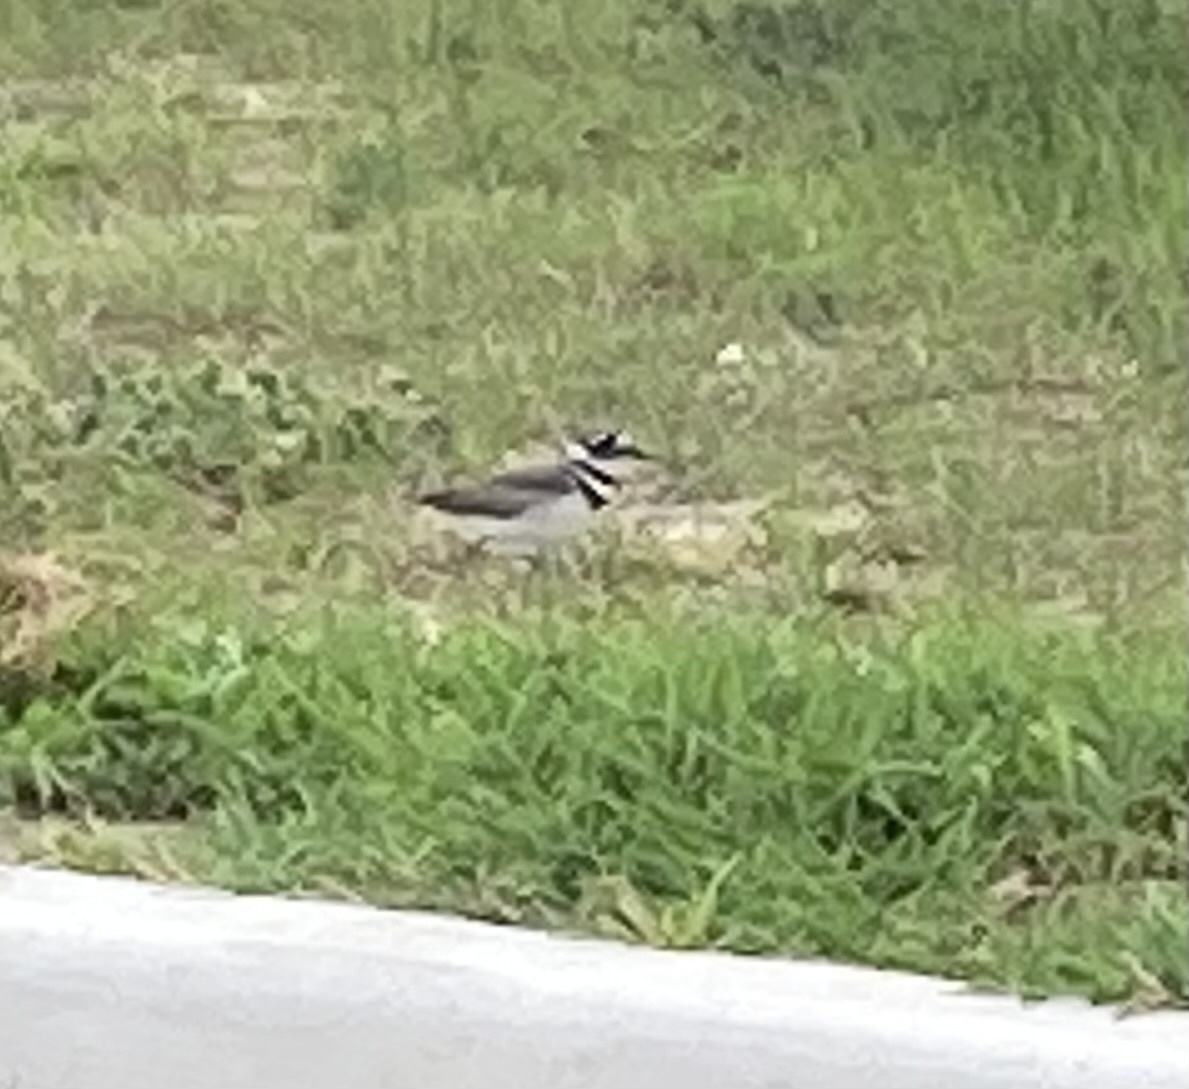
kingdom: Animalia
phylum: Chordata
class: Aves
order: Charadriiformes
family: Charadriidae
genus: Charadrius
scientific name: Charadrius vociferus
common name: Killdeer
